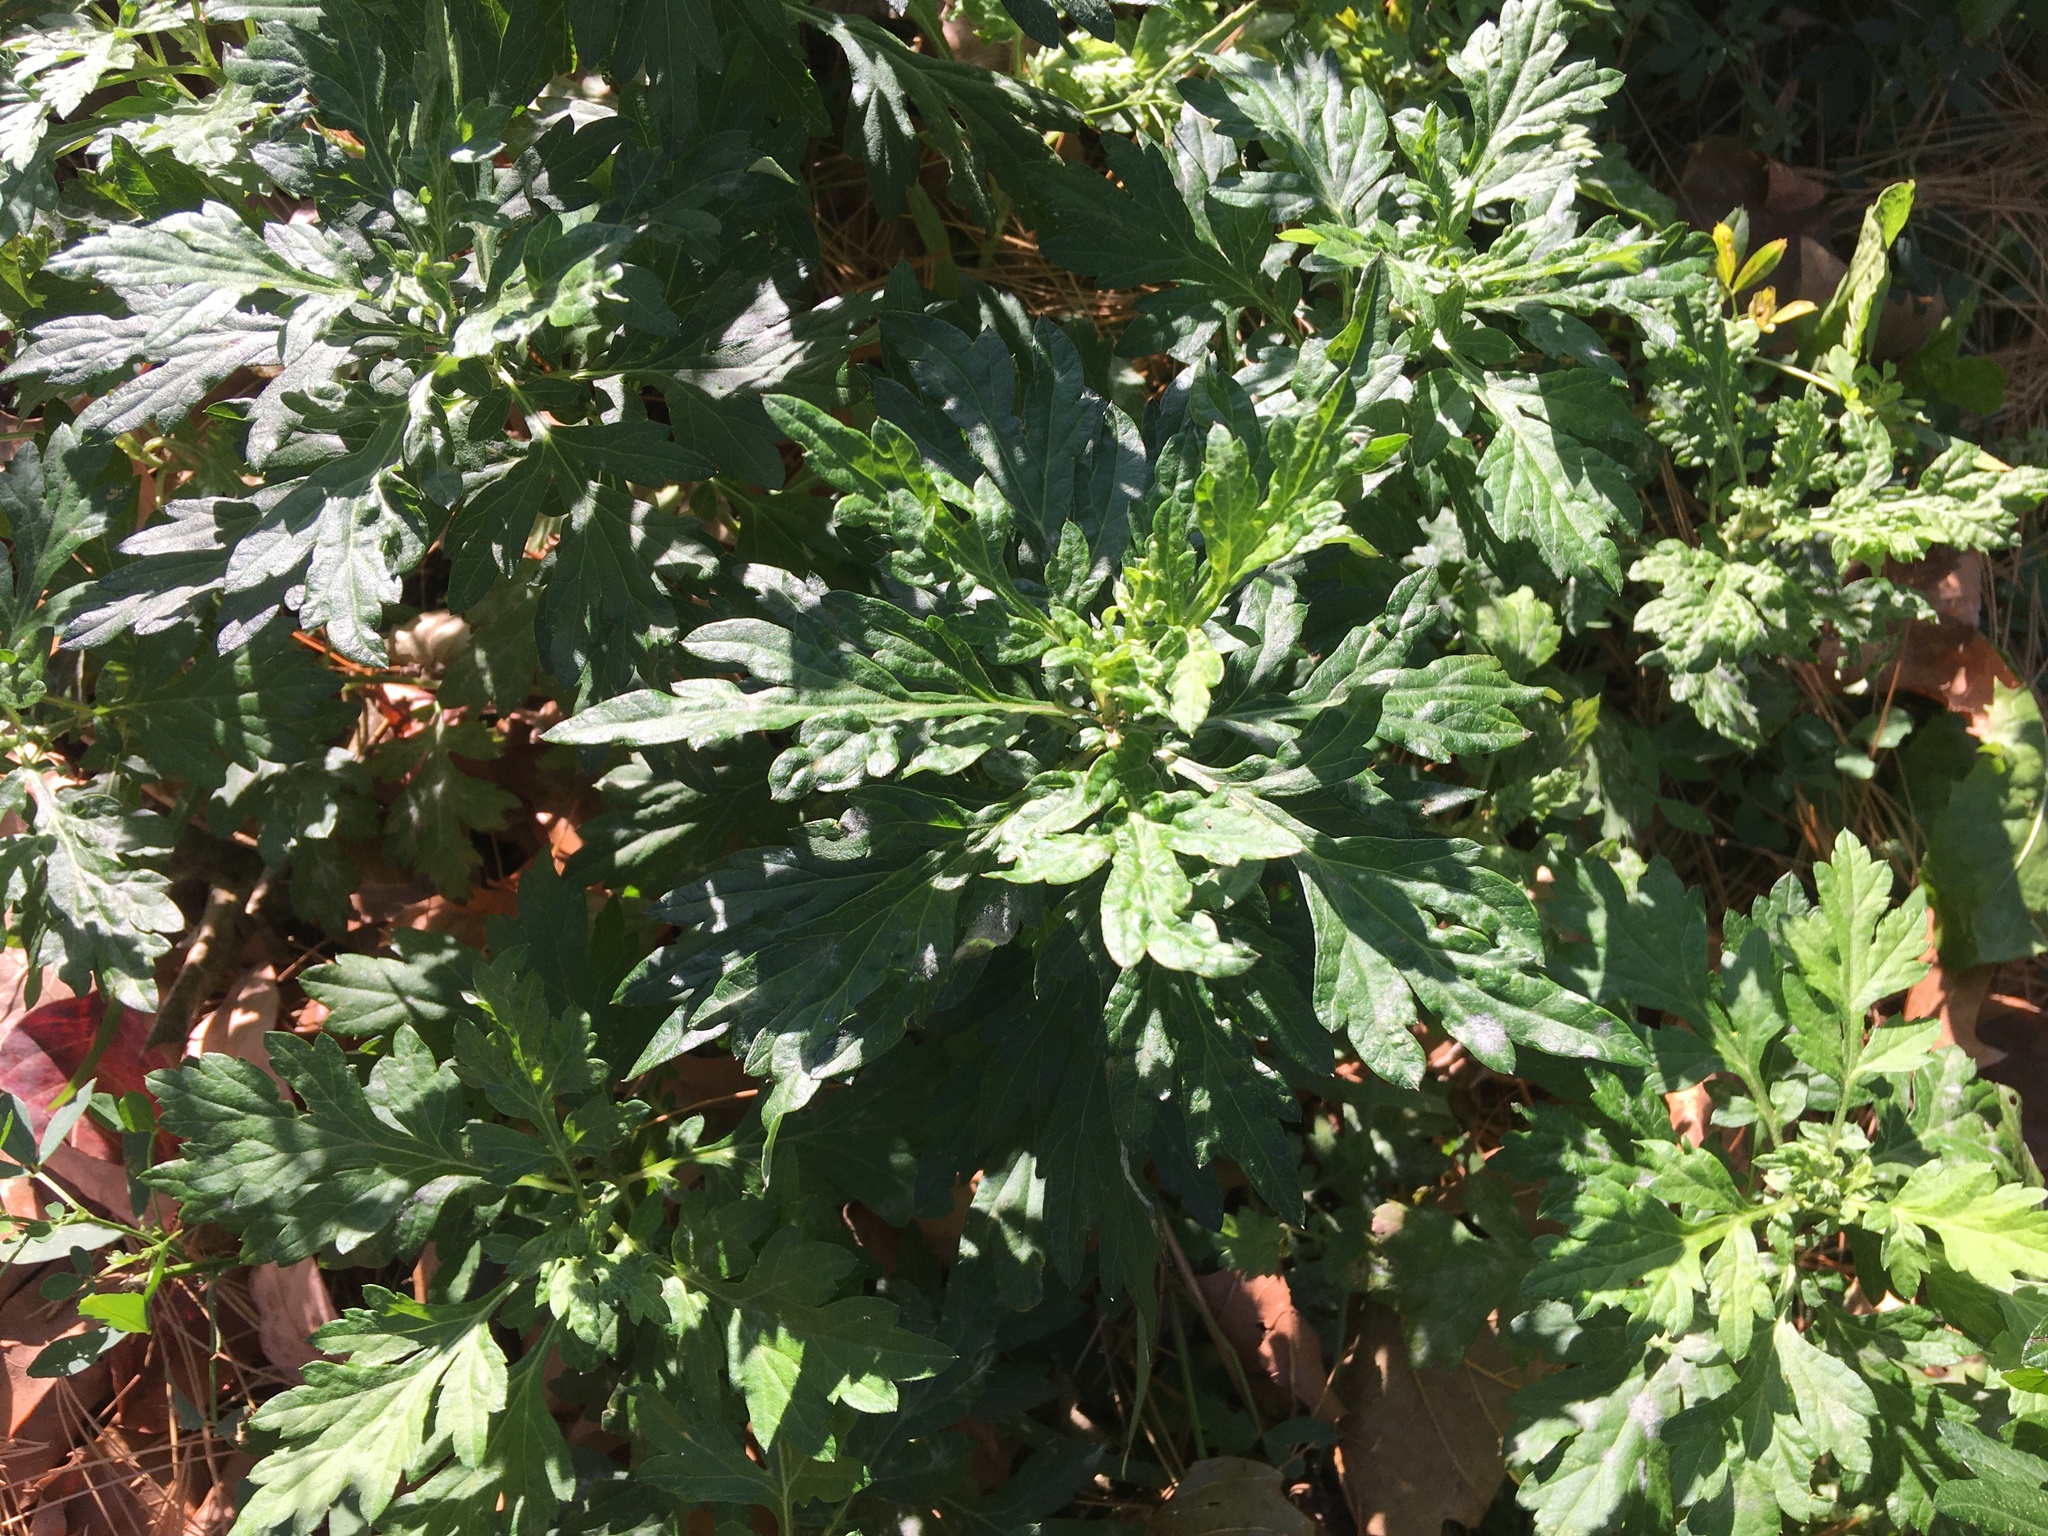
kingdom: Plantae
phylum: Tracheophyta
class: Magnoliopsida
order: Asterales
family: Asteraceae
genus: Artemisia
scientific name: Artemisia vulgaris
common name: Mugwort
